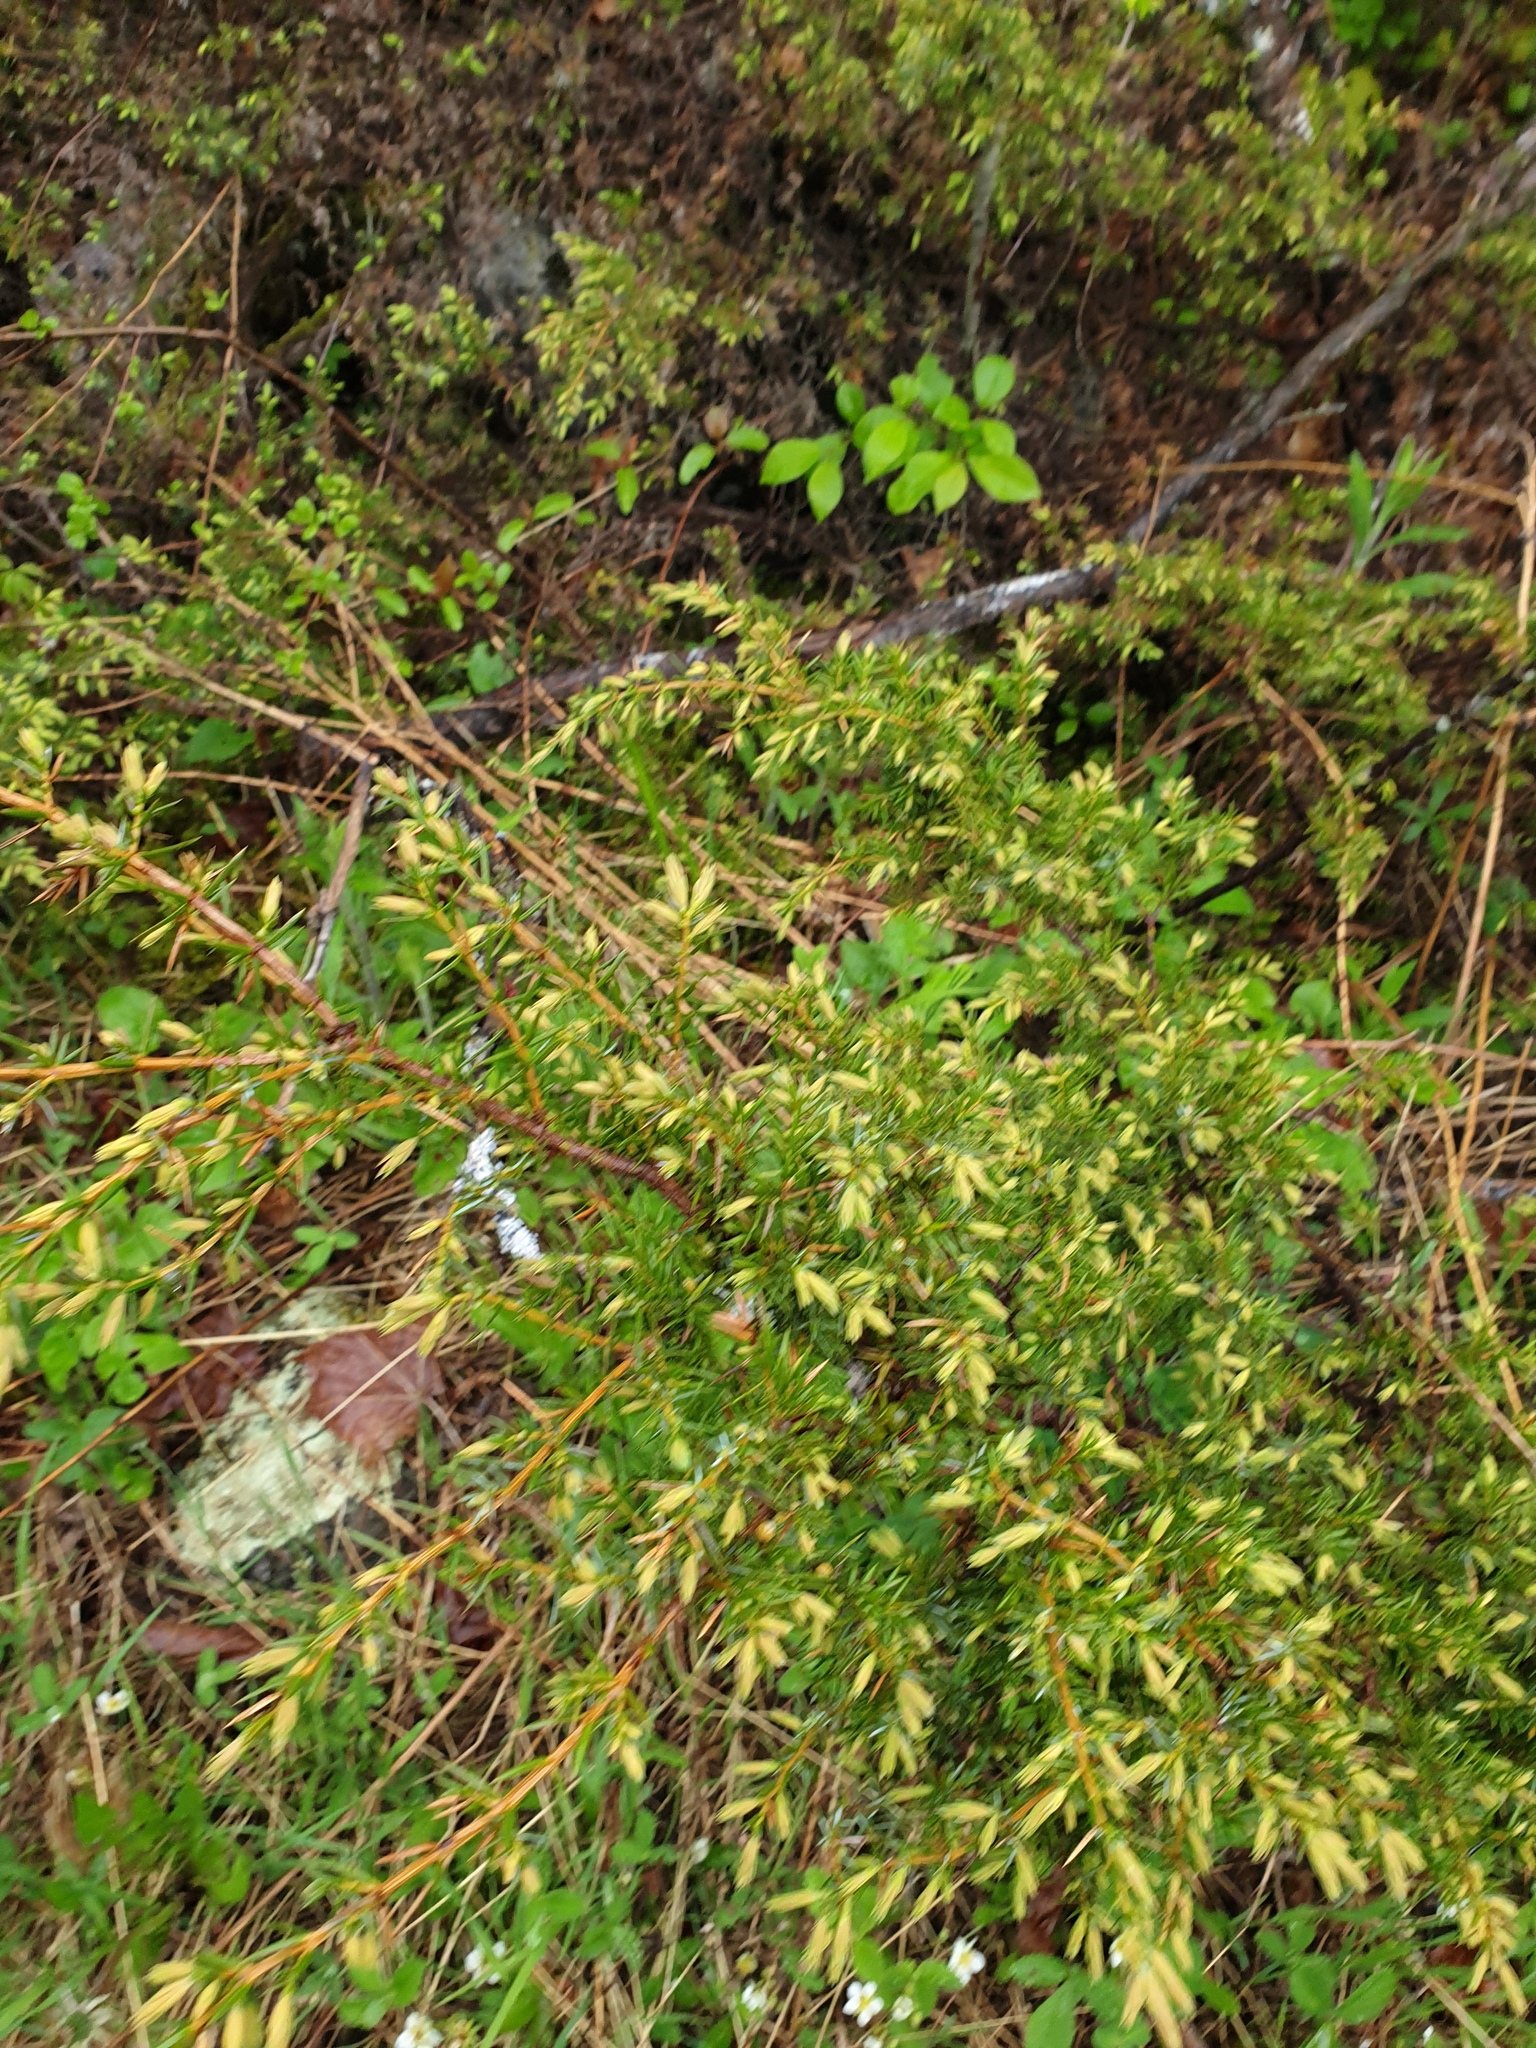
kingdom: Plantae
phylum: Tracheophyta
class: Pinopsida
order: Pinales
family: Cupressaceae
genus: Juniperus
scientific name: Juniperus communis
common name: Common juniper
